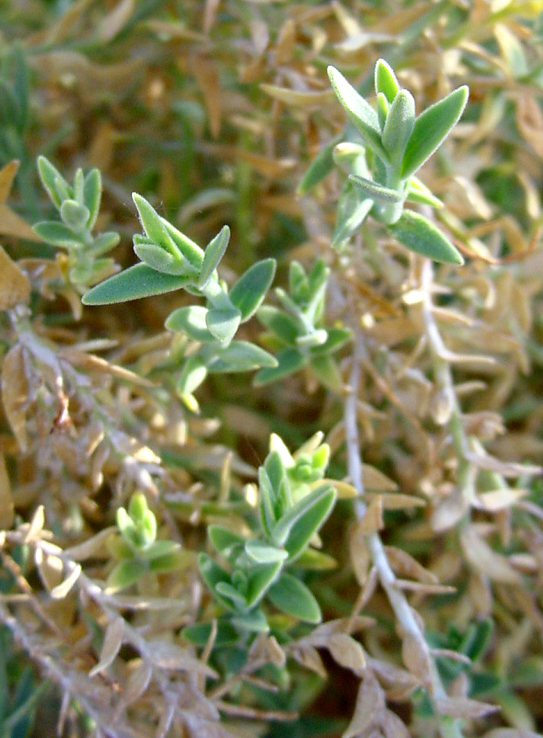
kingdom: Plantae
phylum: Tracheophyta
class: Magnoliopsida
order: Cornales
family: Loasaceae
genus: Petalonyx
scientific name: Petalonyx thurberi
